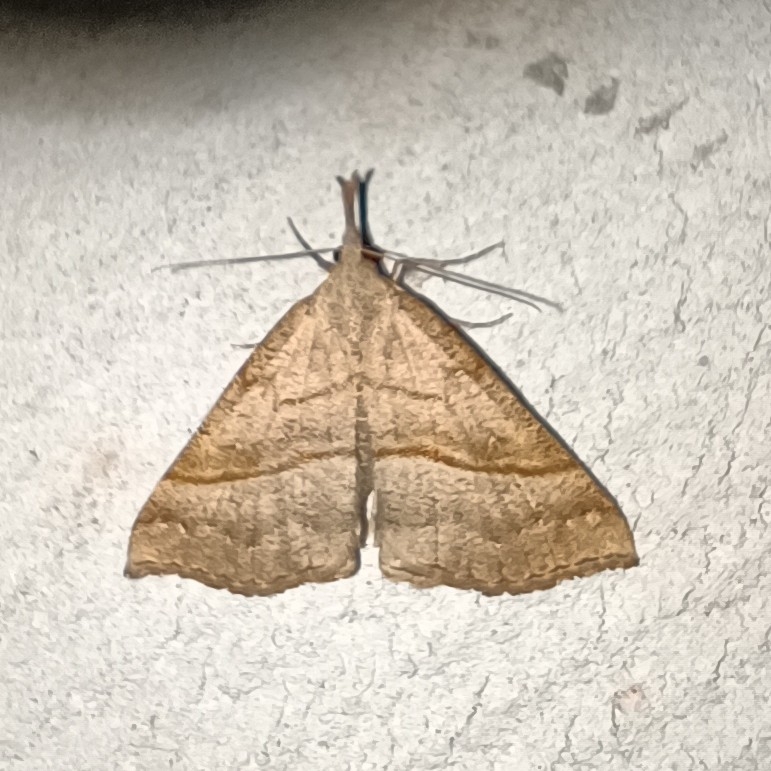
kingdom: Animalia
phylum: Arthropoda
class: Insecta
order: Lepidoptera
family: Erebidae
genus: Hypena
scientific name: Hypena proboscidalis
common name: Snout
